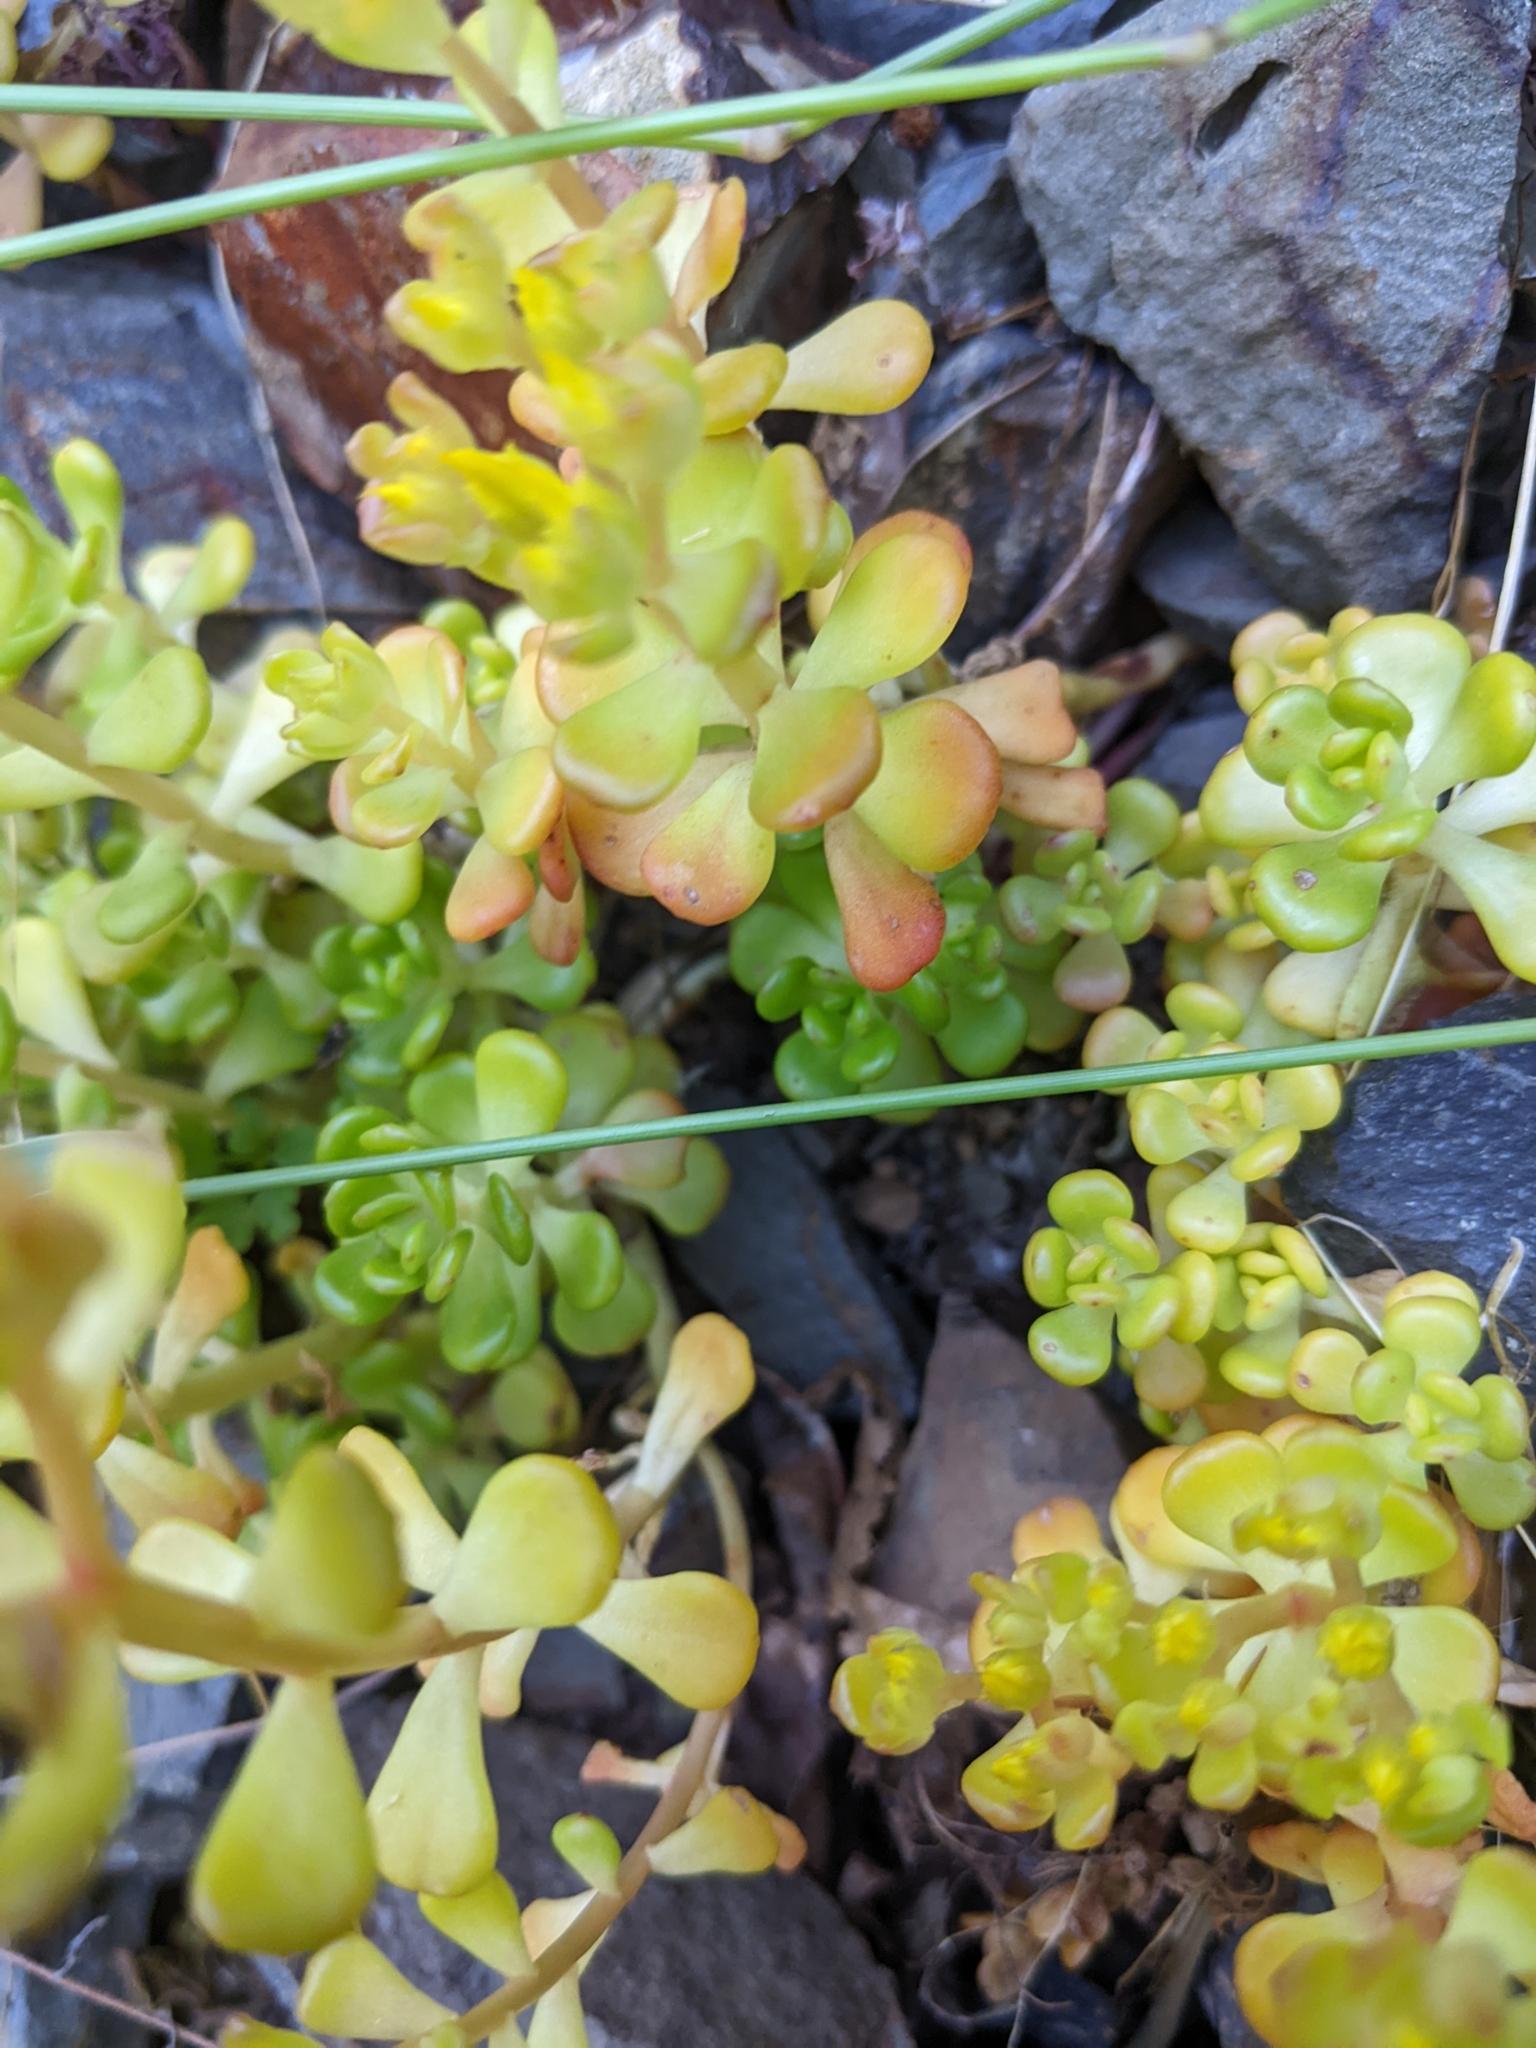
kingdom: Plantae
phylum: Tracheophyta
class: Magnoliopsida
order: Saxifragales
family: Crassulaceae
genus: Sedum
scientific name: Sedum oreganum
